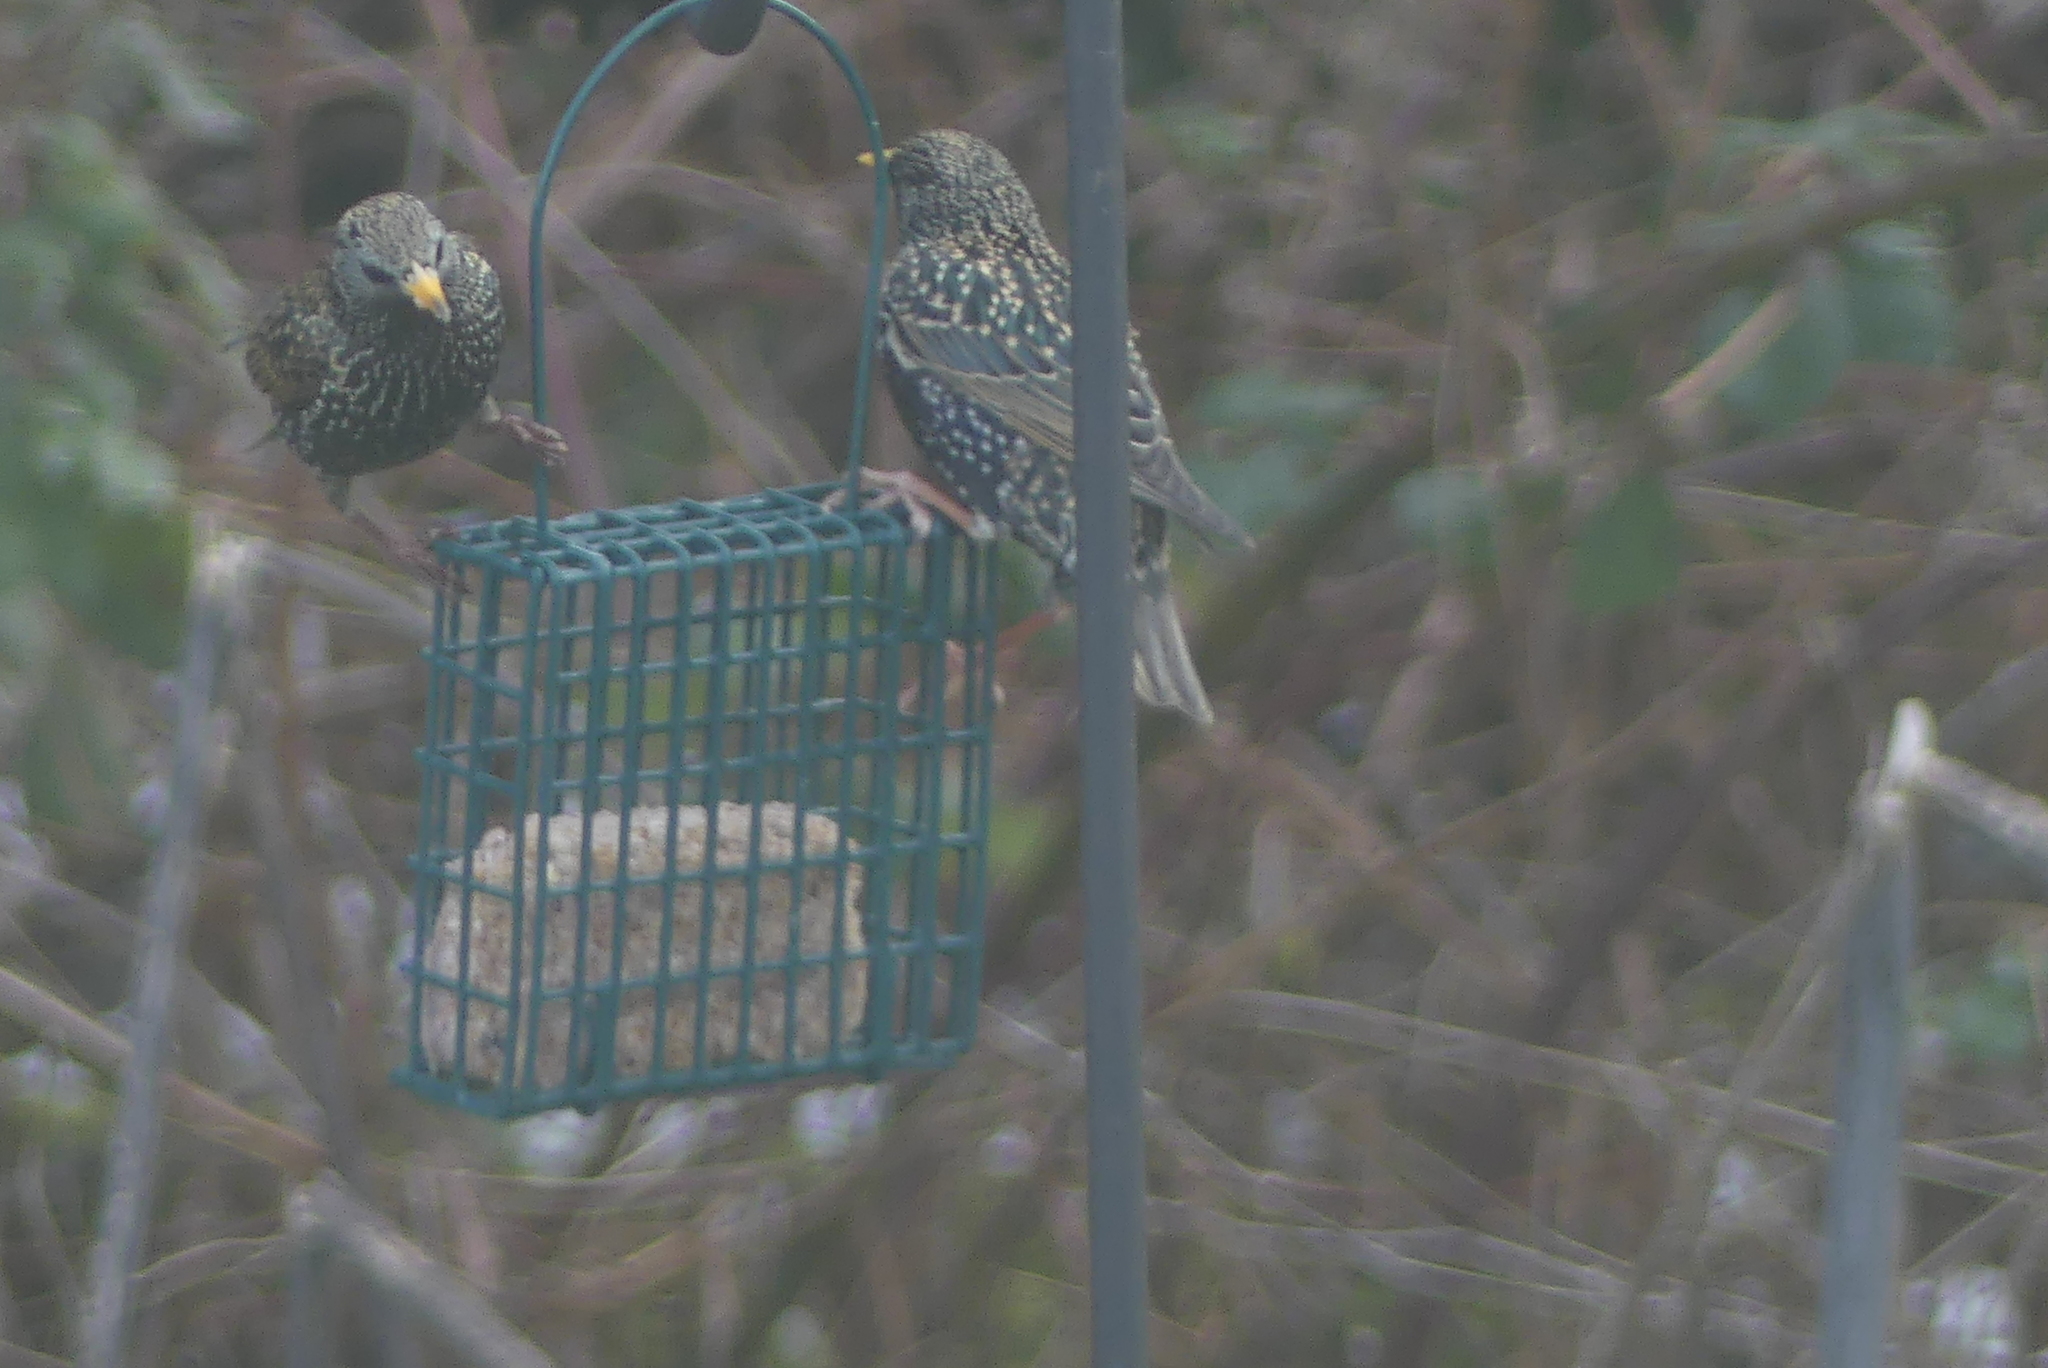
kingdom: Animalia
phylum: Chordata
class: Aves
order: Passeriformes
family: Sturnidae
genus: Sturnus
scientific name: Sturnus vulgaris
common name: Common starling
